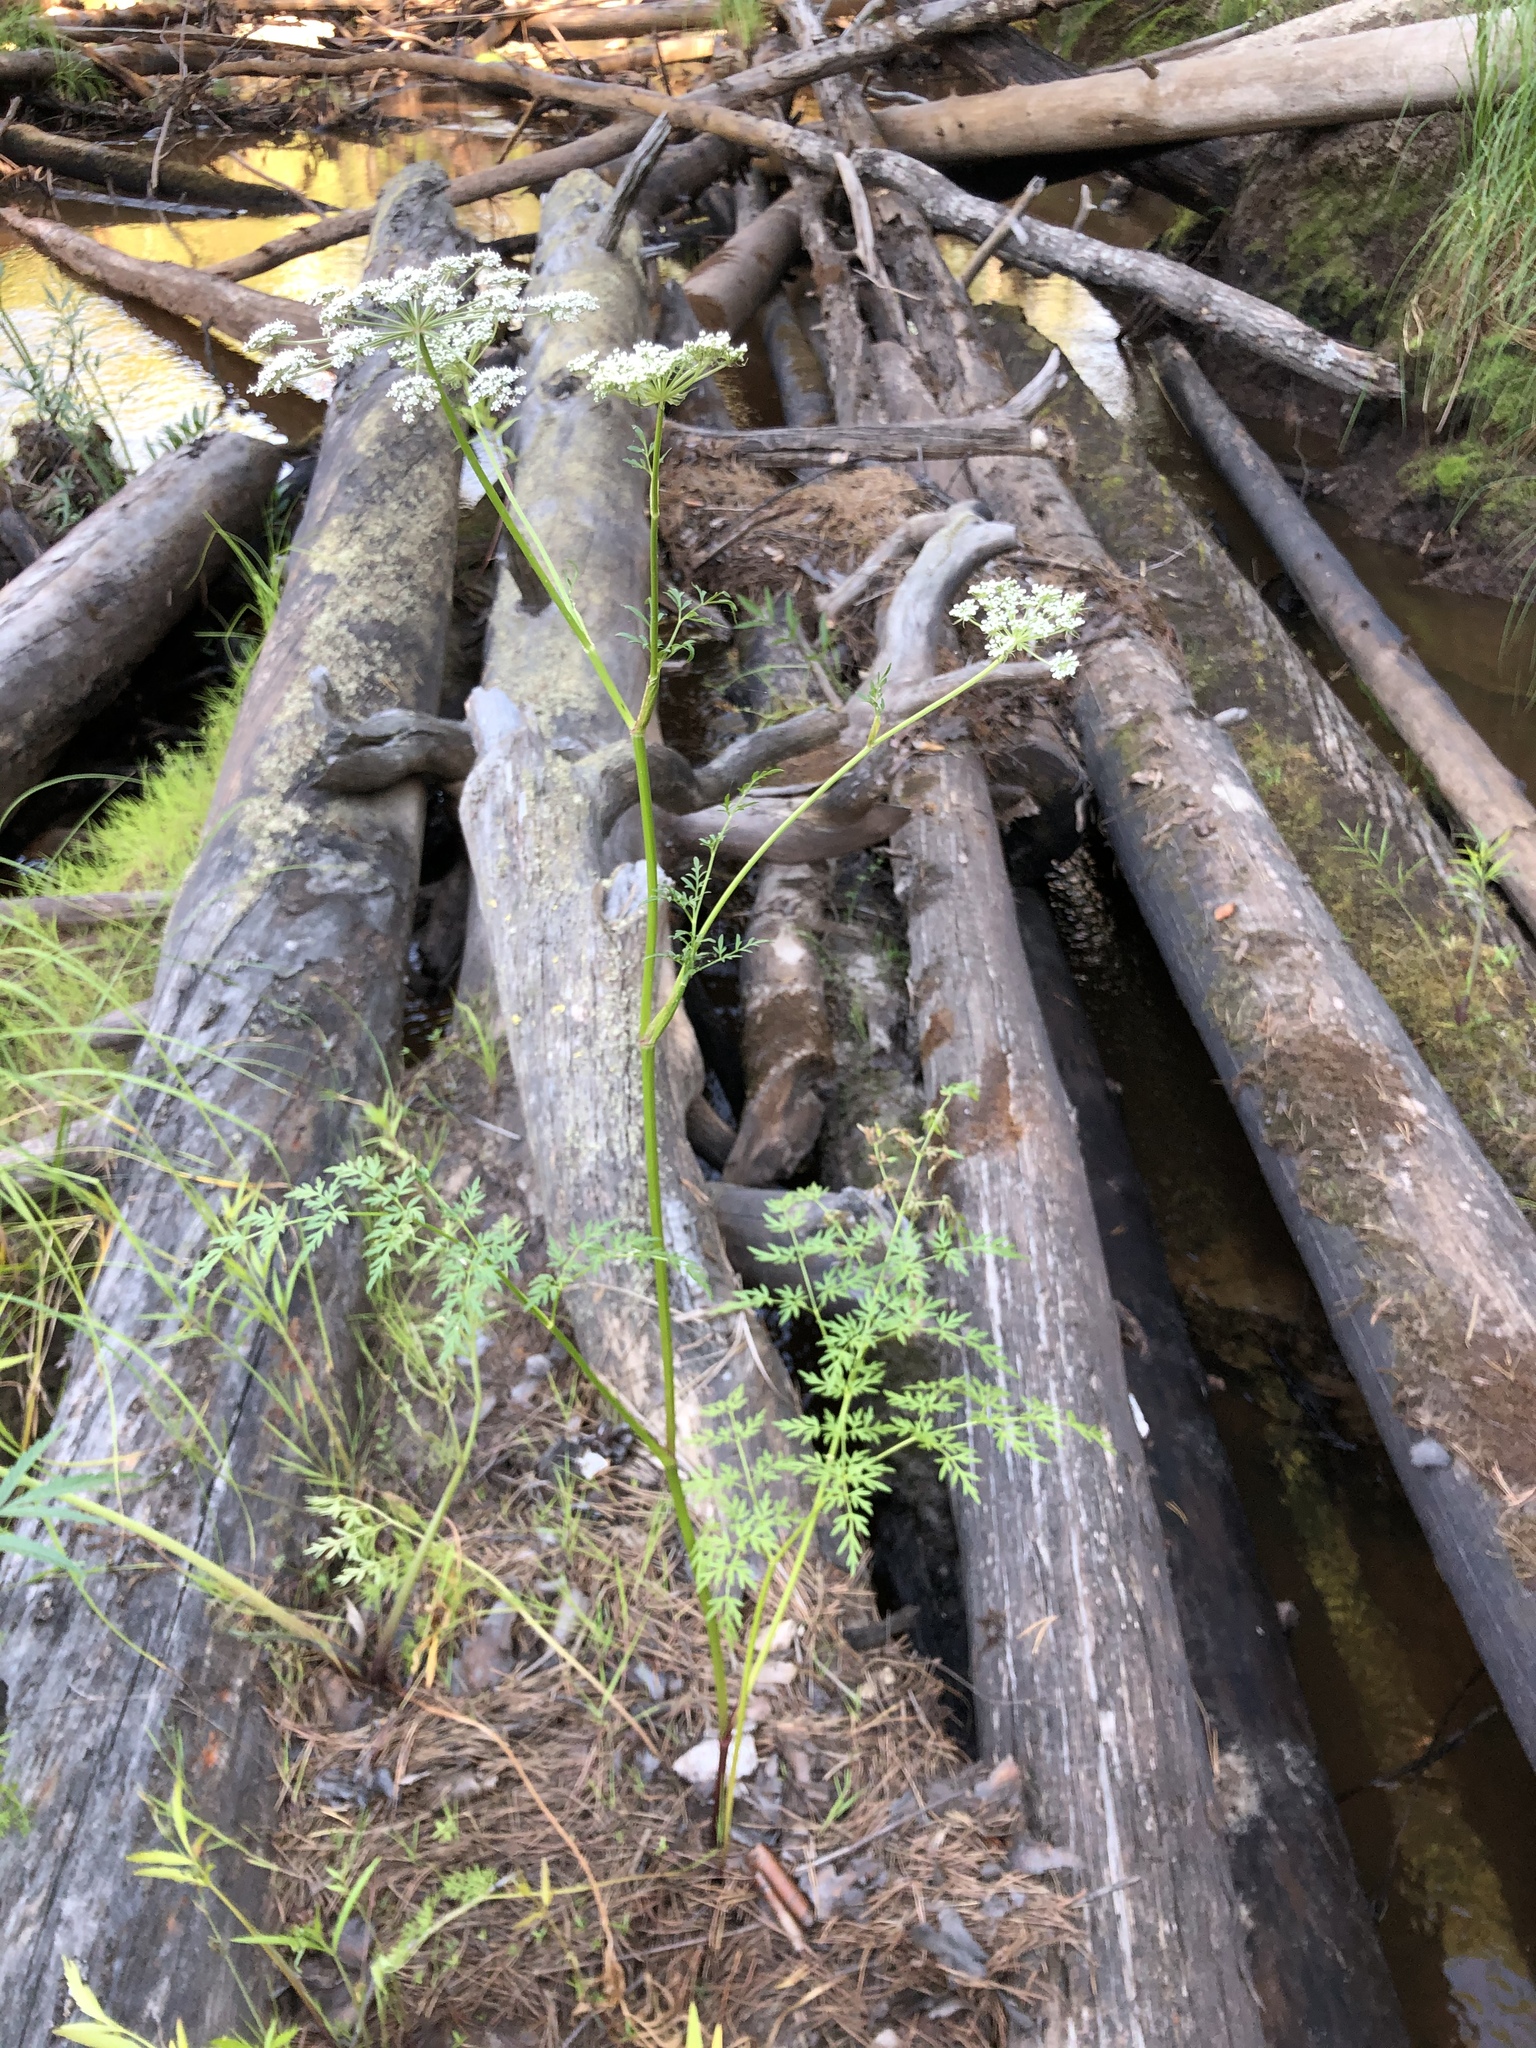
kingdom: Plantae
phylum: Tracheophyta
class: Magnoliopsida
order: Apiales
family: Apiaceae
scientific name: Apiaceae
